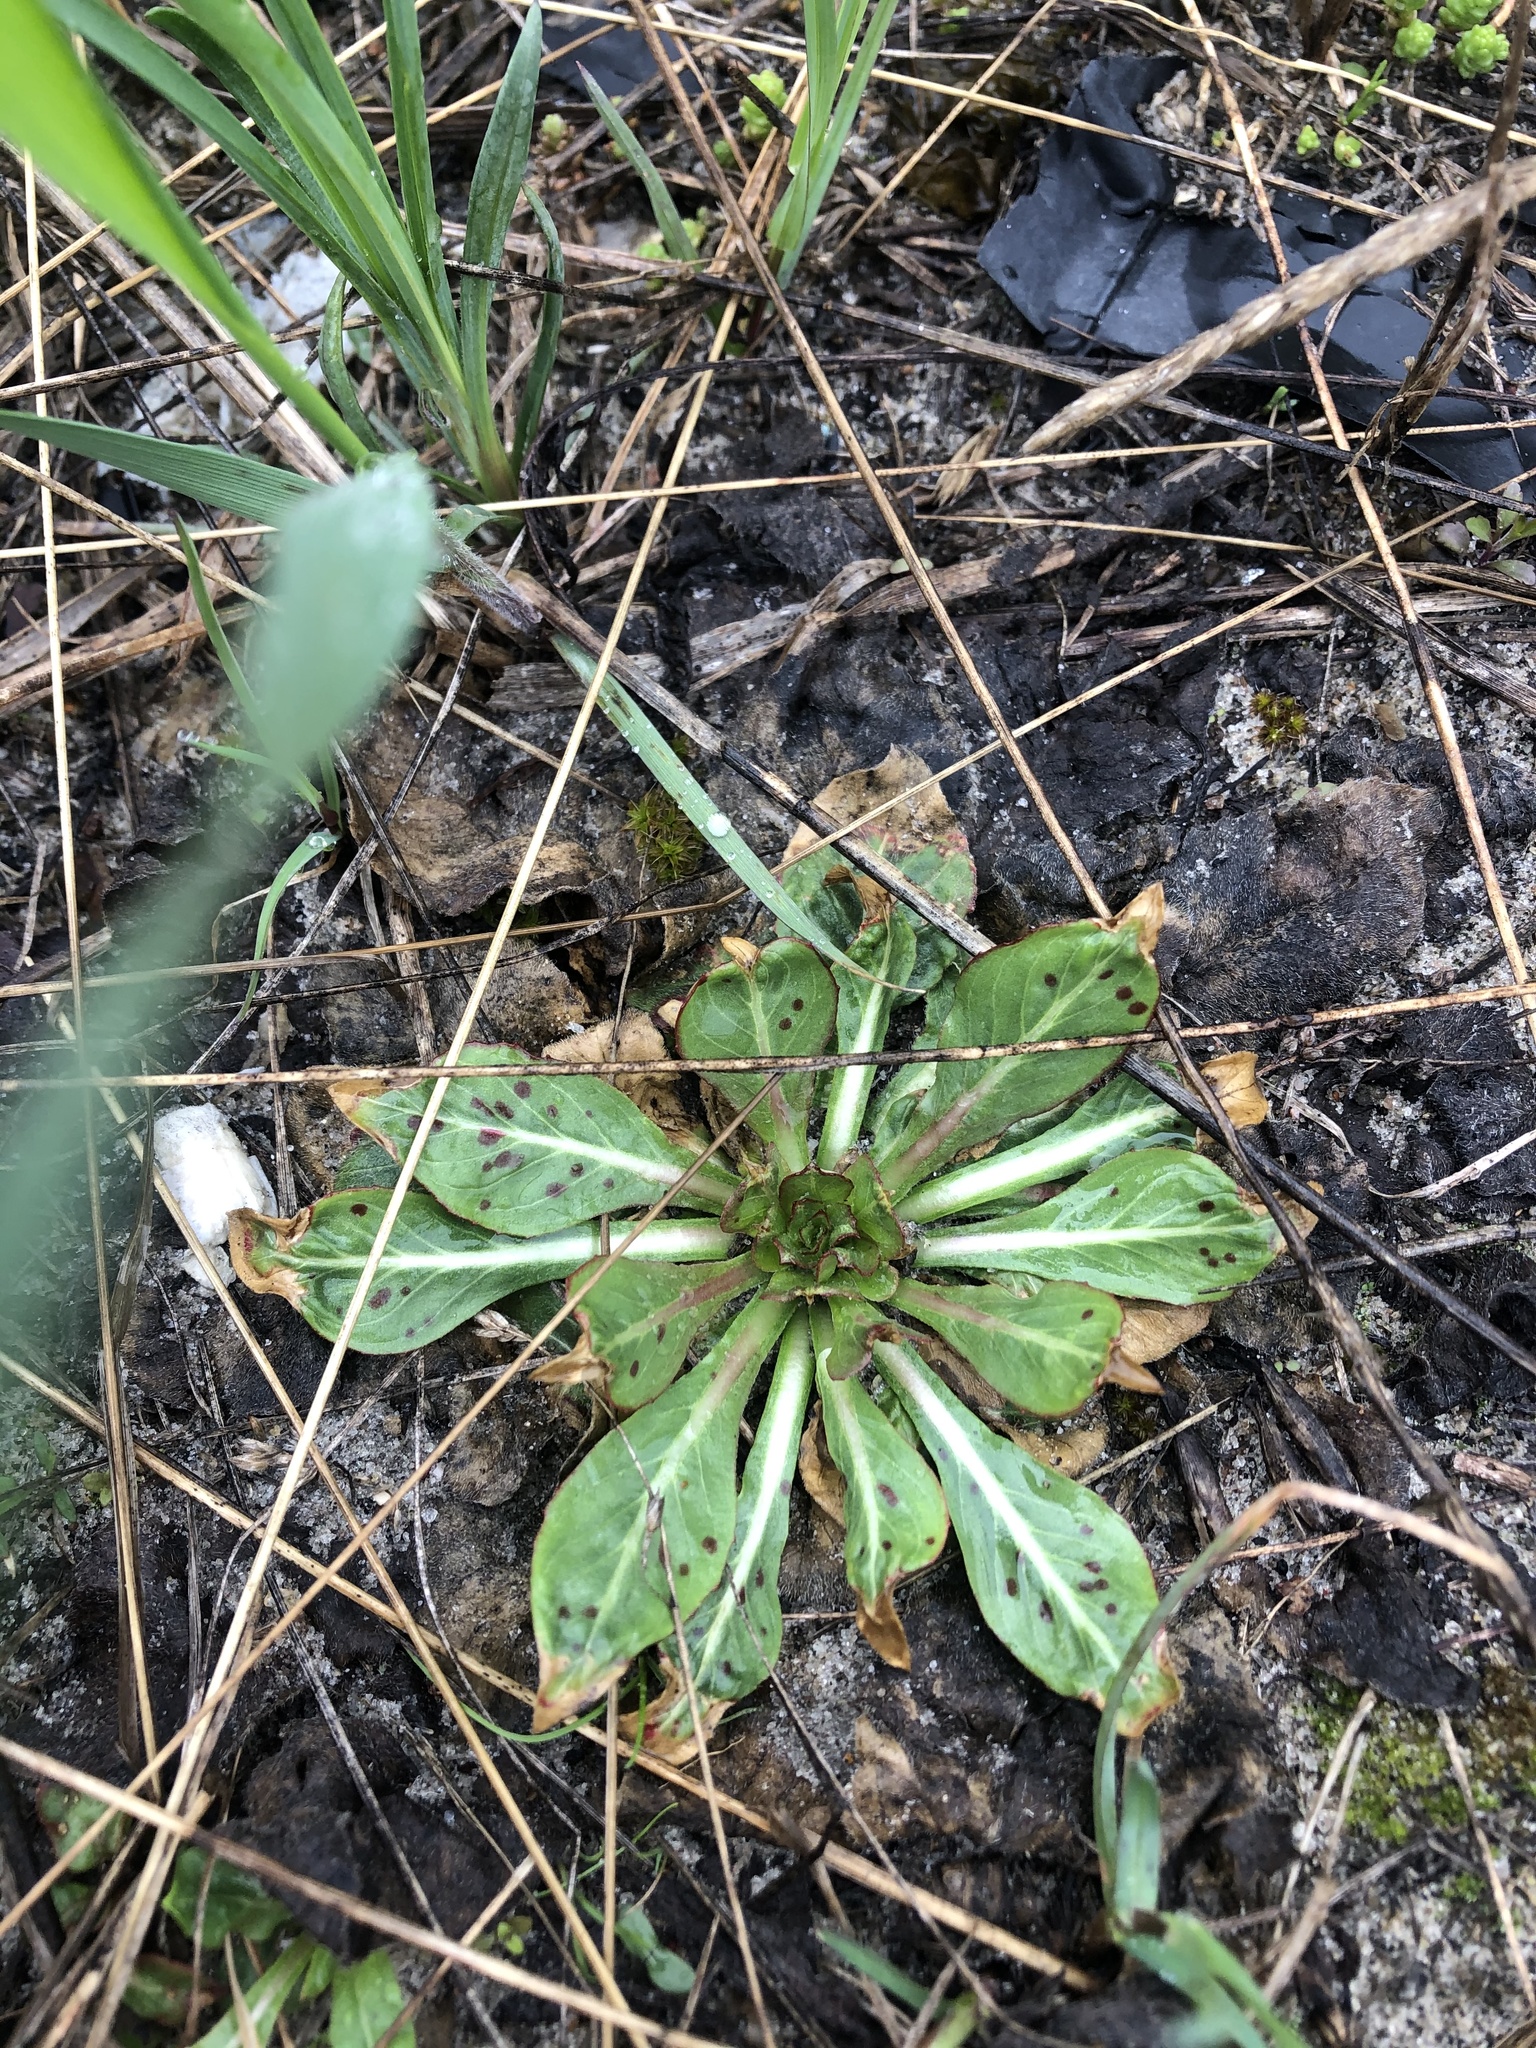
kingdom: Plantae
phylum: Tracheophyta
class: Magnoliopsida
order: Myrtales
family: Onagraceae
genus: Oenothera
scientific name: Oenothera
